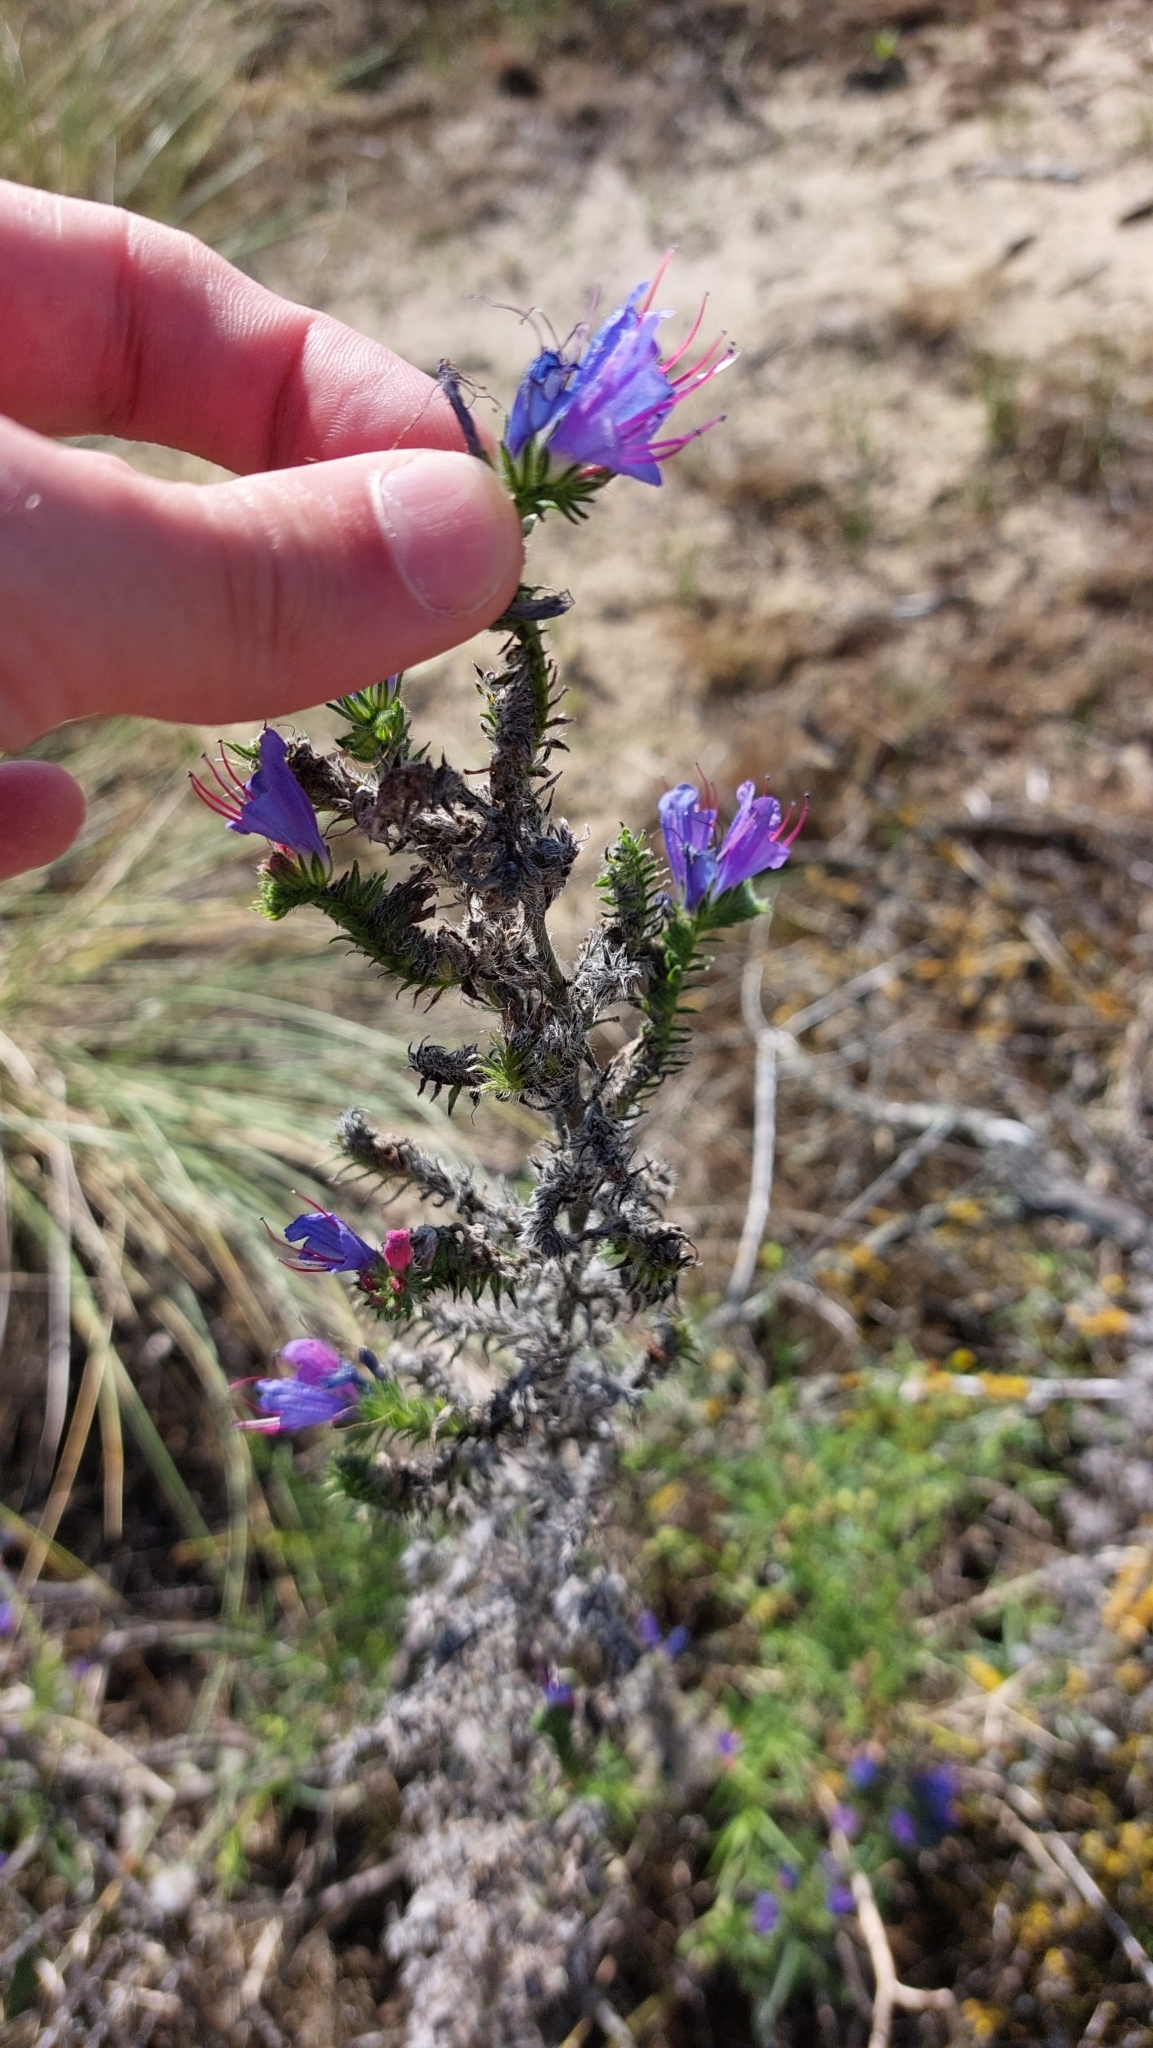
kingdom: Plantae
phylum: Tracheophyta
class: Magnoliopsida
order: Boraginales
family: Boraginaceae
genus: Echium
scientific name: Echium vulgare
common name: Common viper's bugloss
